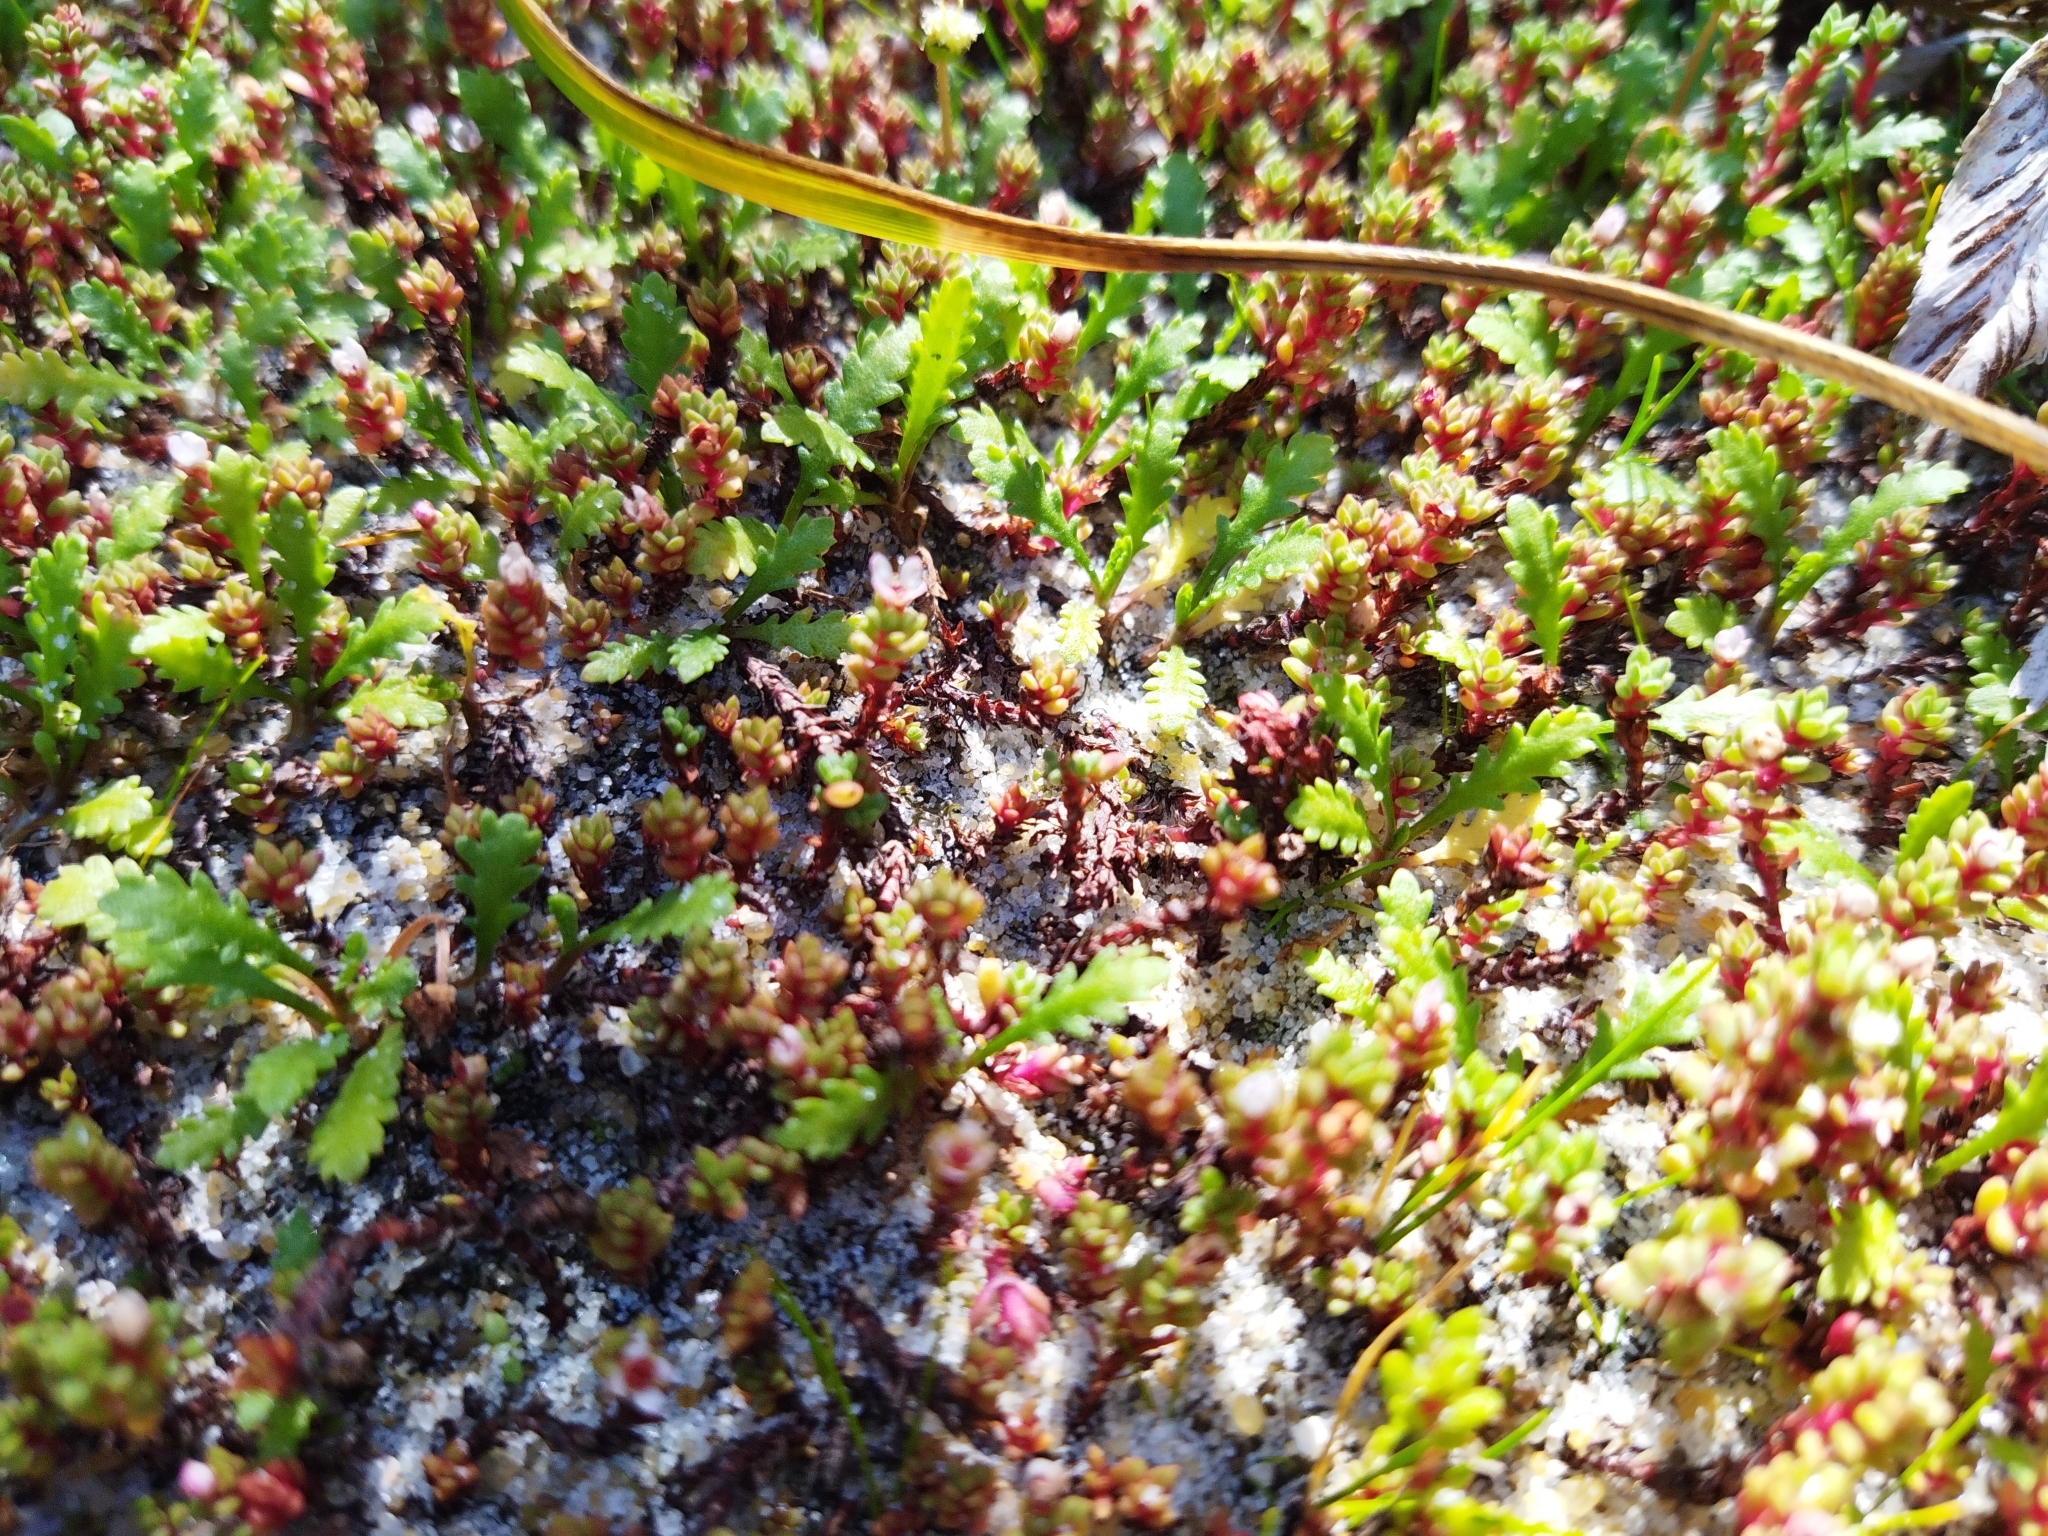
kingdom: Plantae
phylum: Tracheophyta
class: Magnoliopsida
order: Saxifragales
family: Crassulaceae
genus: Crassula
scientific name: Crassula moschata
